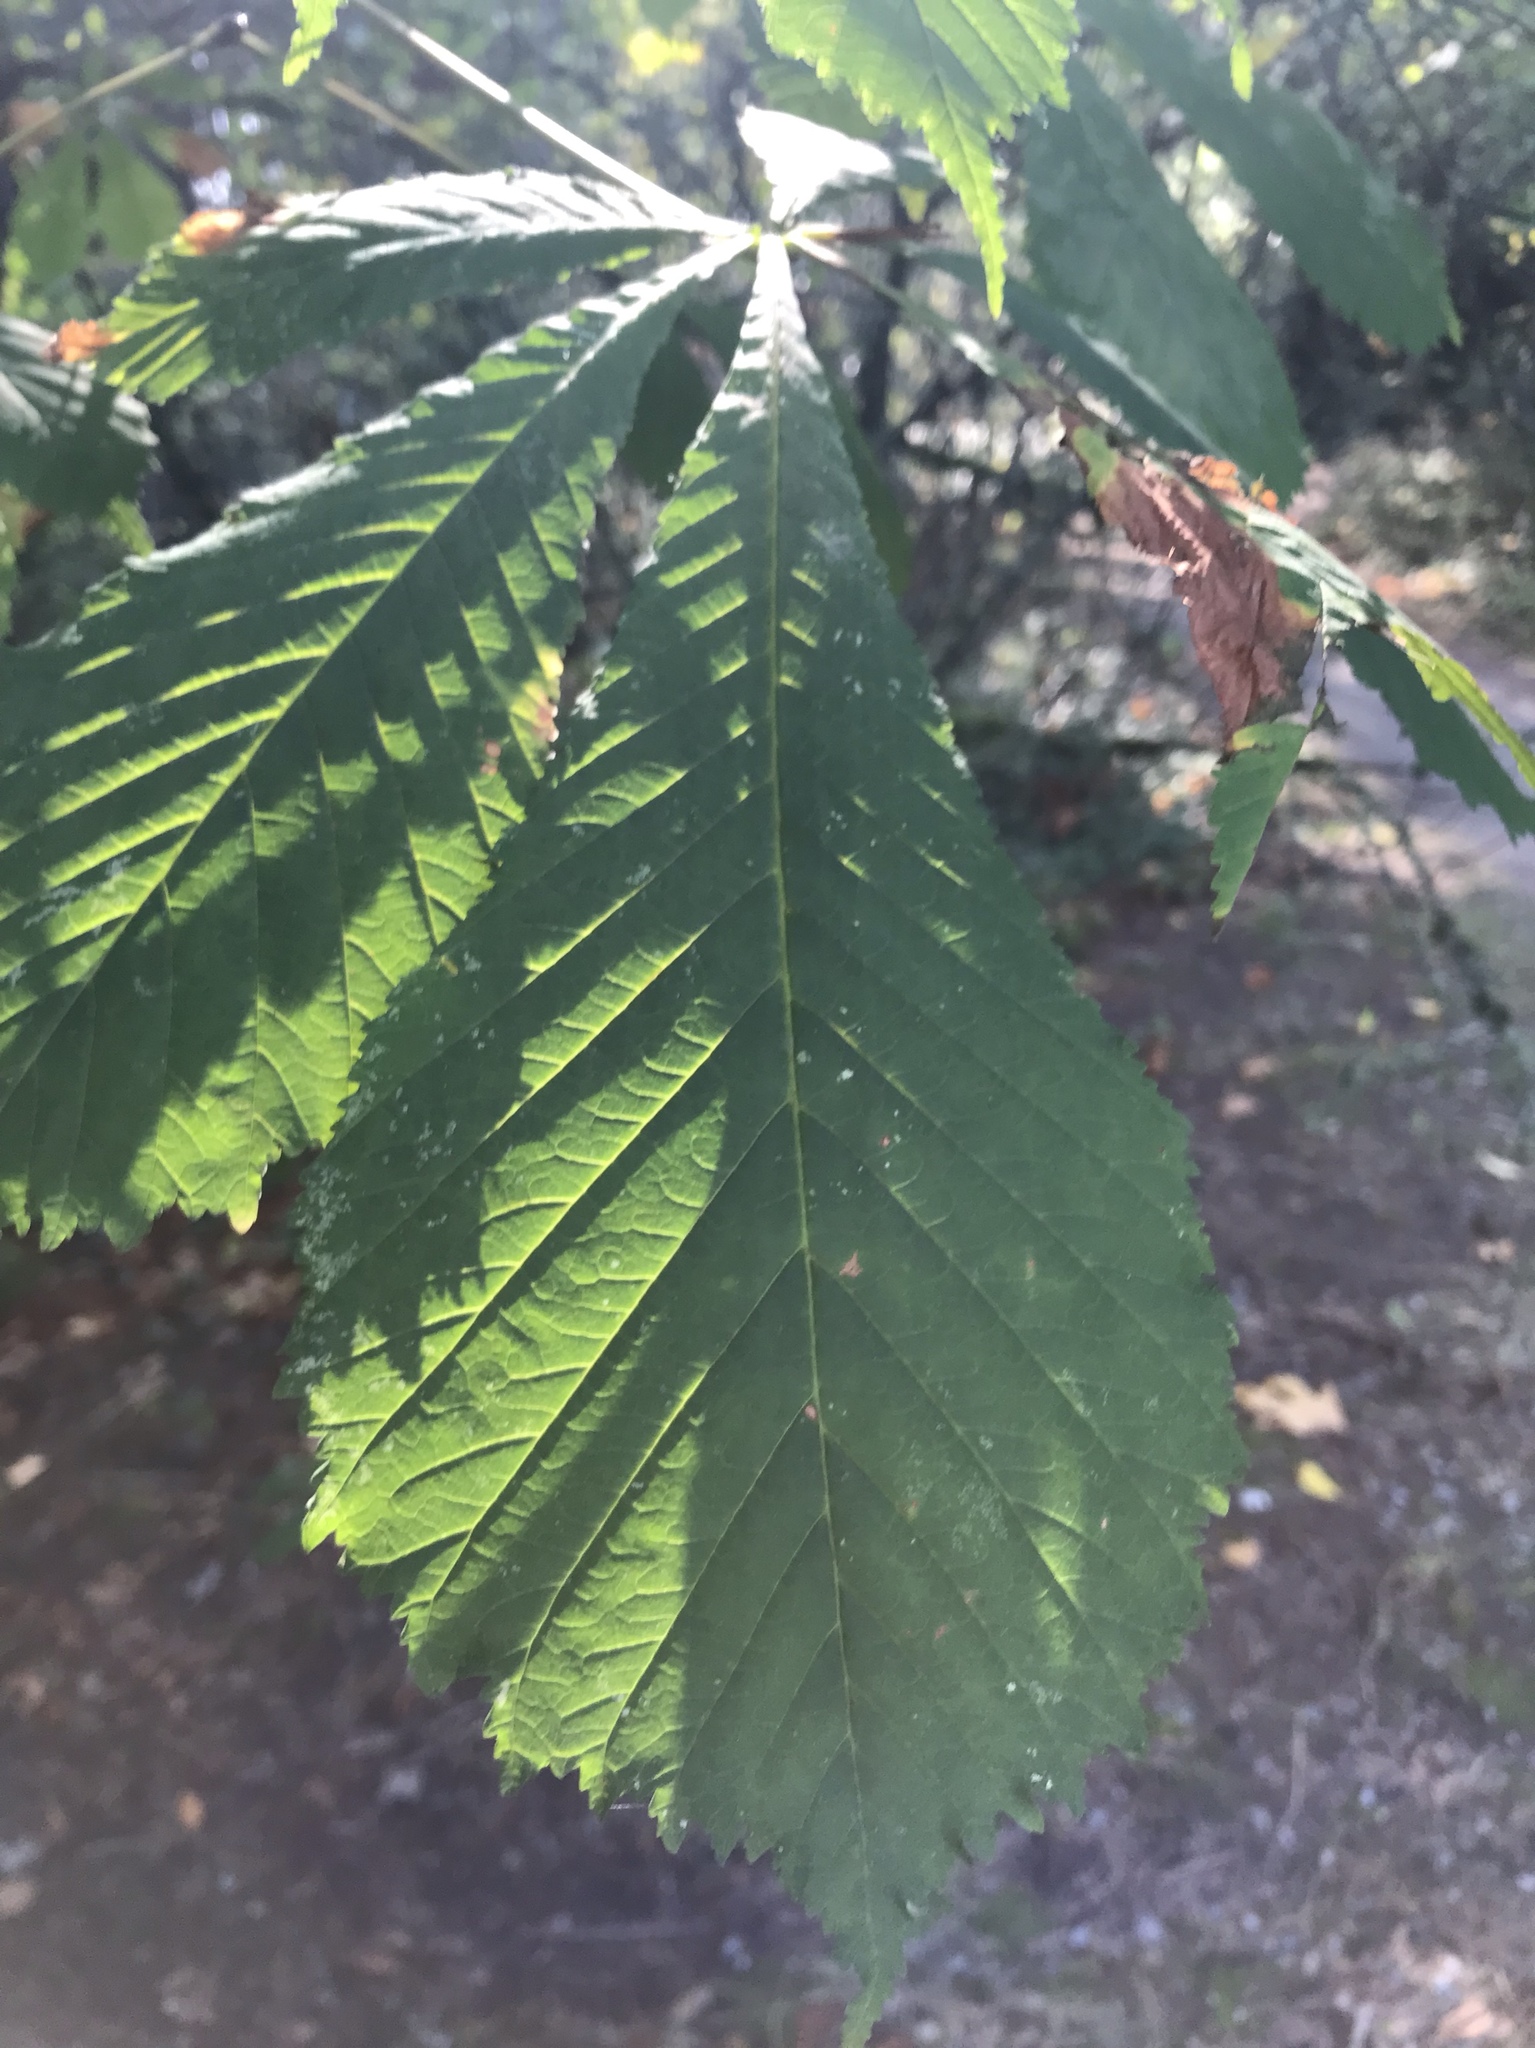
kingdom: Plantae
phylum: Tracheophyta
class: Magnoliopsida
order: Sapindales
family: Sapindaceae
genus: Aesculus
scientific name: Aesculus hippocastanum
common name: Horse-chestnut
